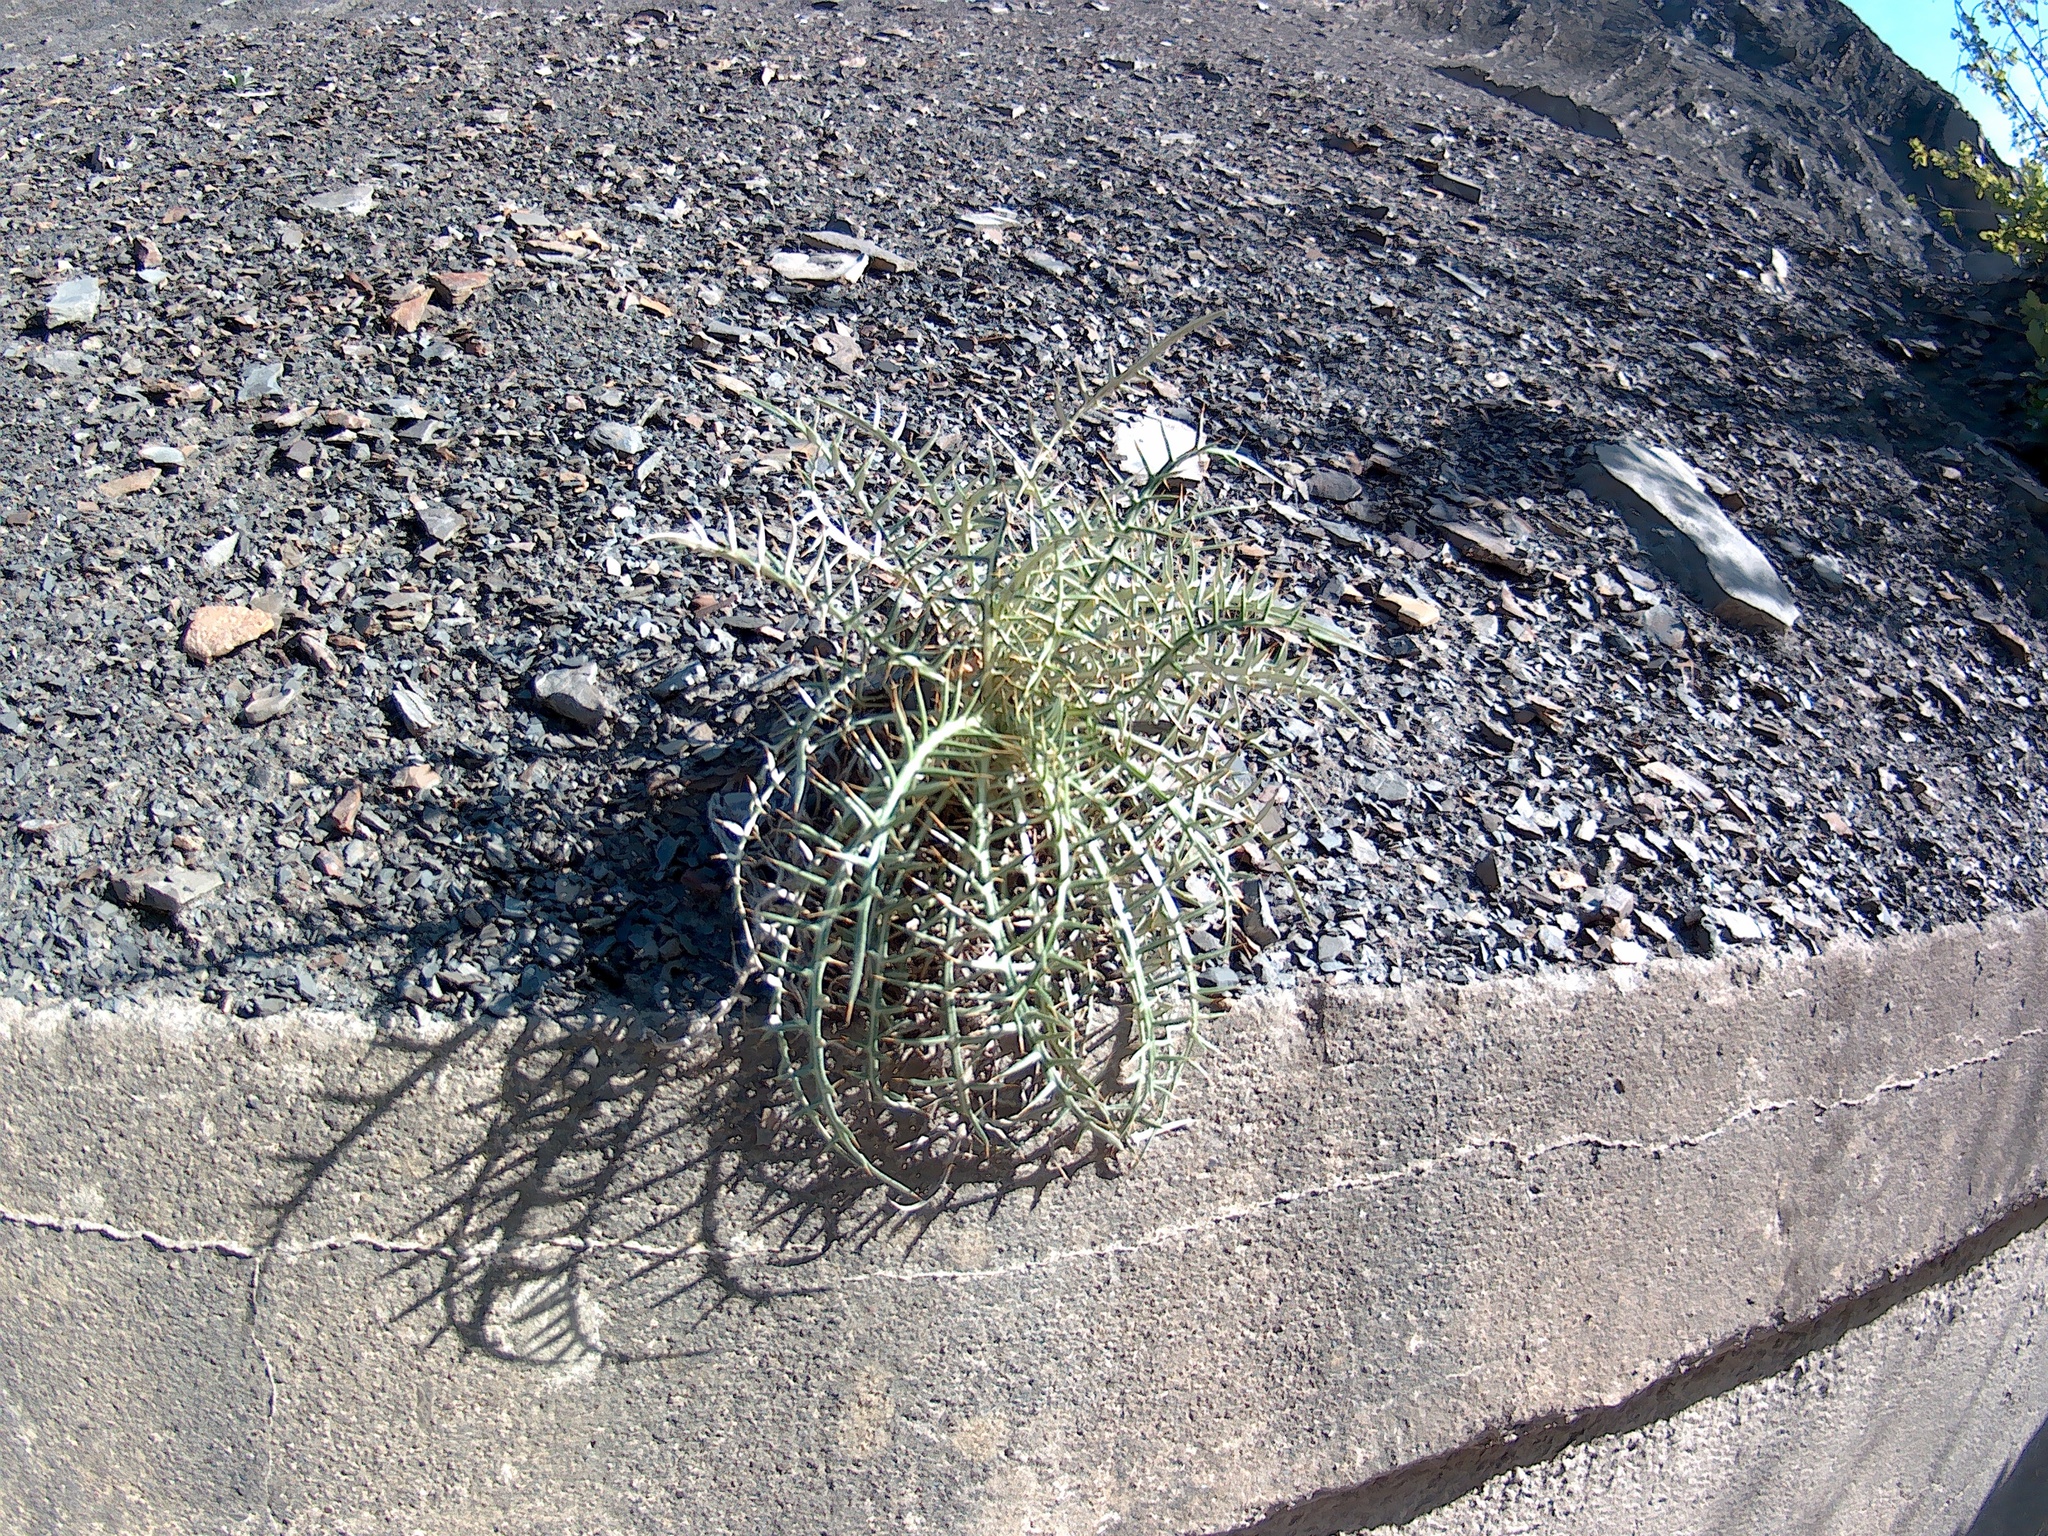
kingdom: Plantae
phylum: Tracheophyta
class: Magnoliopsida
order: Asterales
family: Asteraceae
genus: Ptilostemon
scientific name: Ptilostemon echinocephalus
